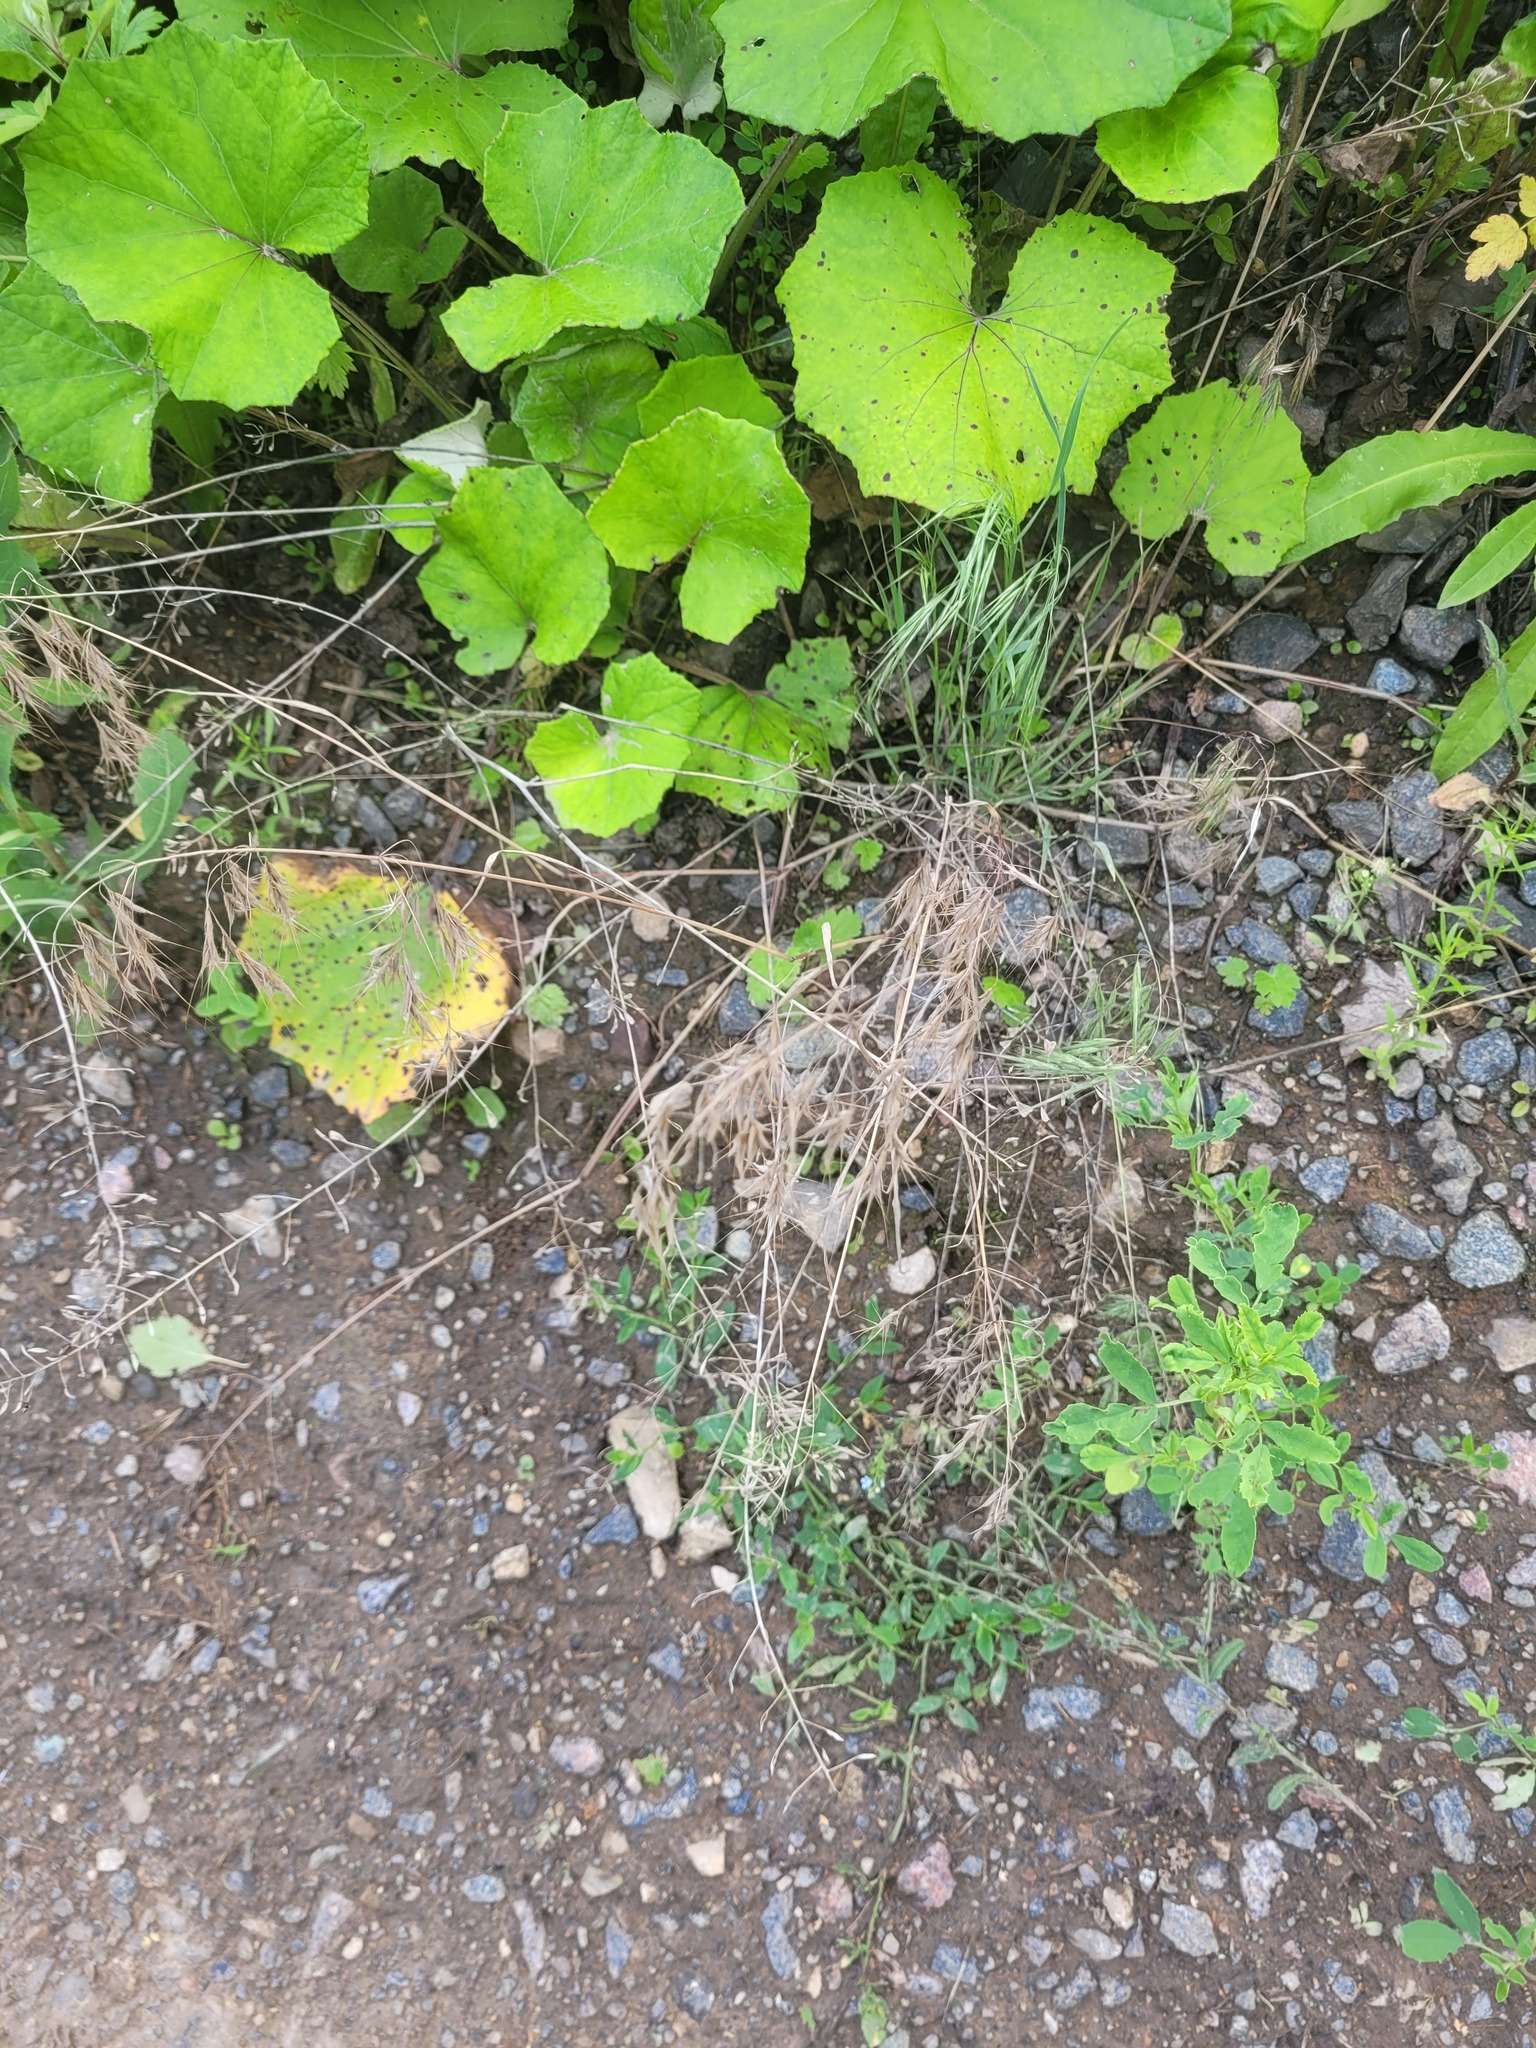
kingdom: Plantae
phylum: Tracheophyta
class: Liliopsida
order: Poales
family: Poaceae
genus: Bromus
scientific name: Bromus tectorum
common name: Cheatgrass
